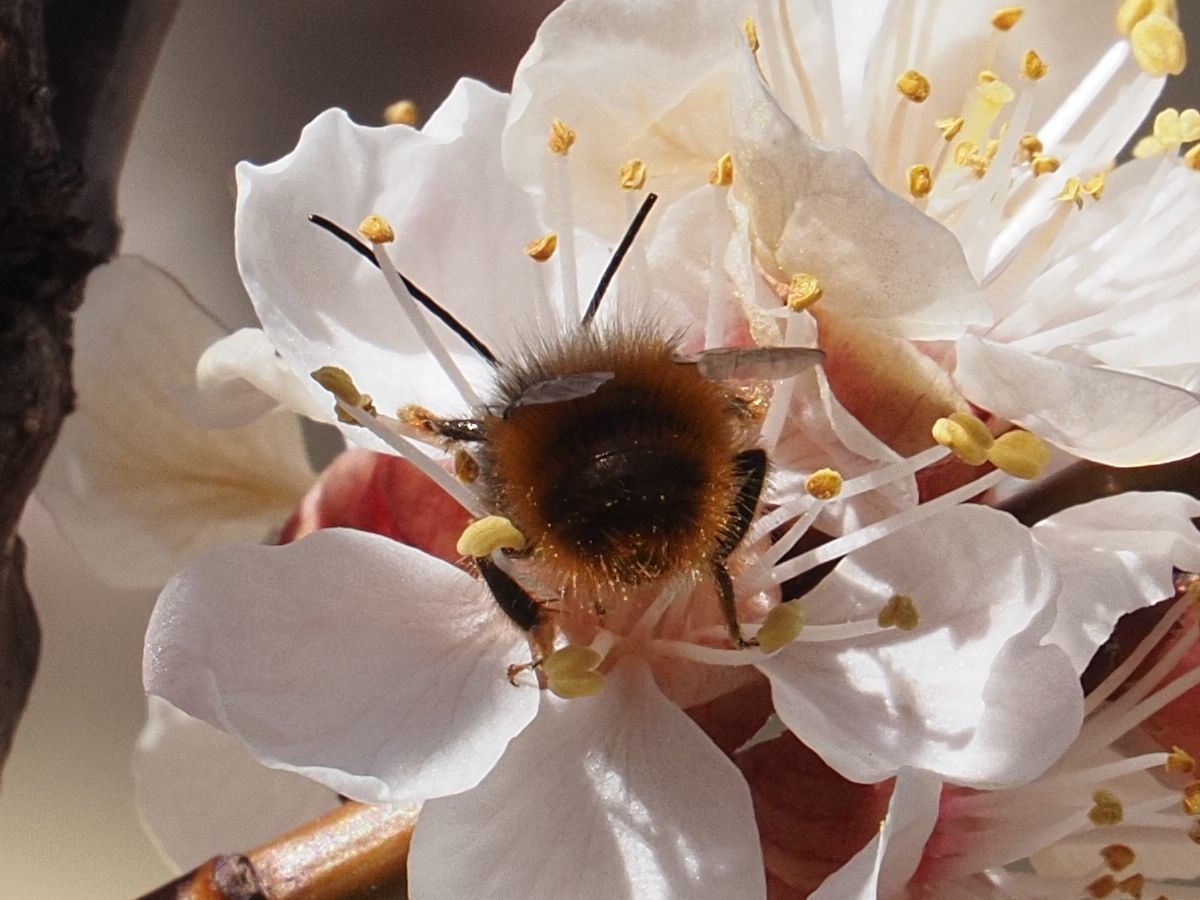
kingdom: Animalia
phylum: Arthropoda
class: Insecta
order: Hymenoptera
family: Megachilidae
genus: Osmia
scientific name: Osmia cornuta
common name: Mason bee
